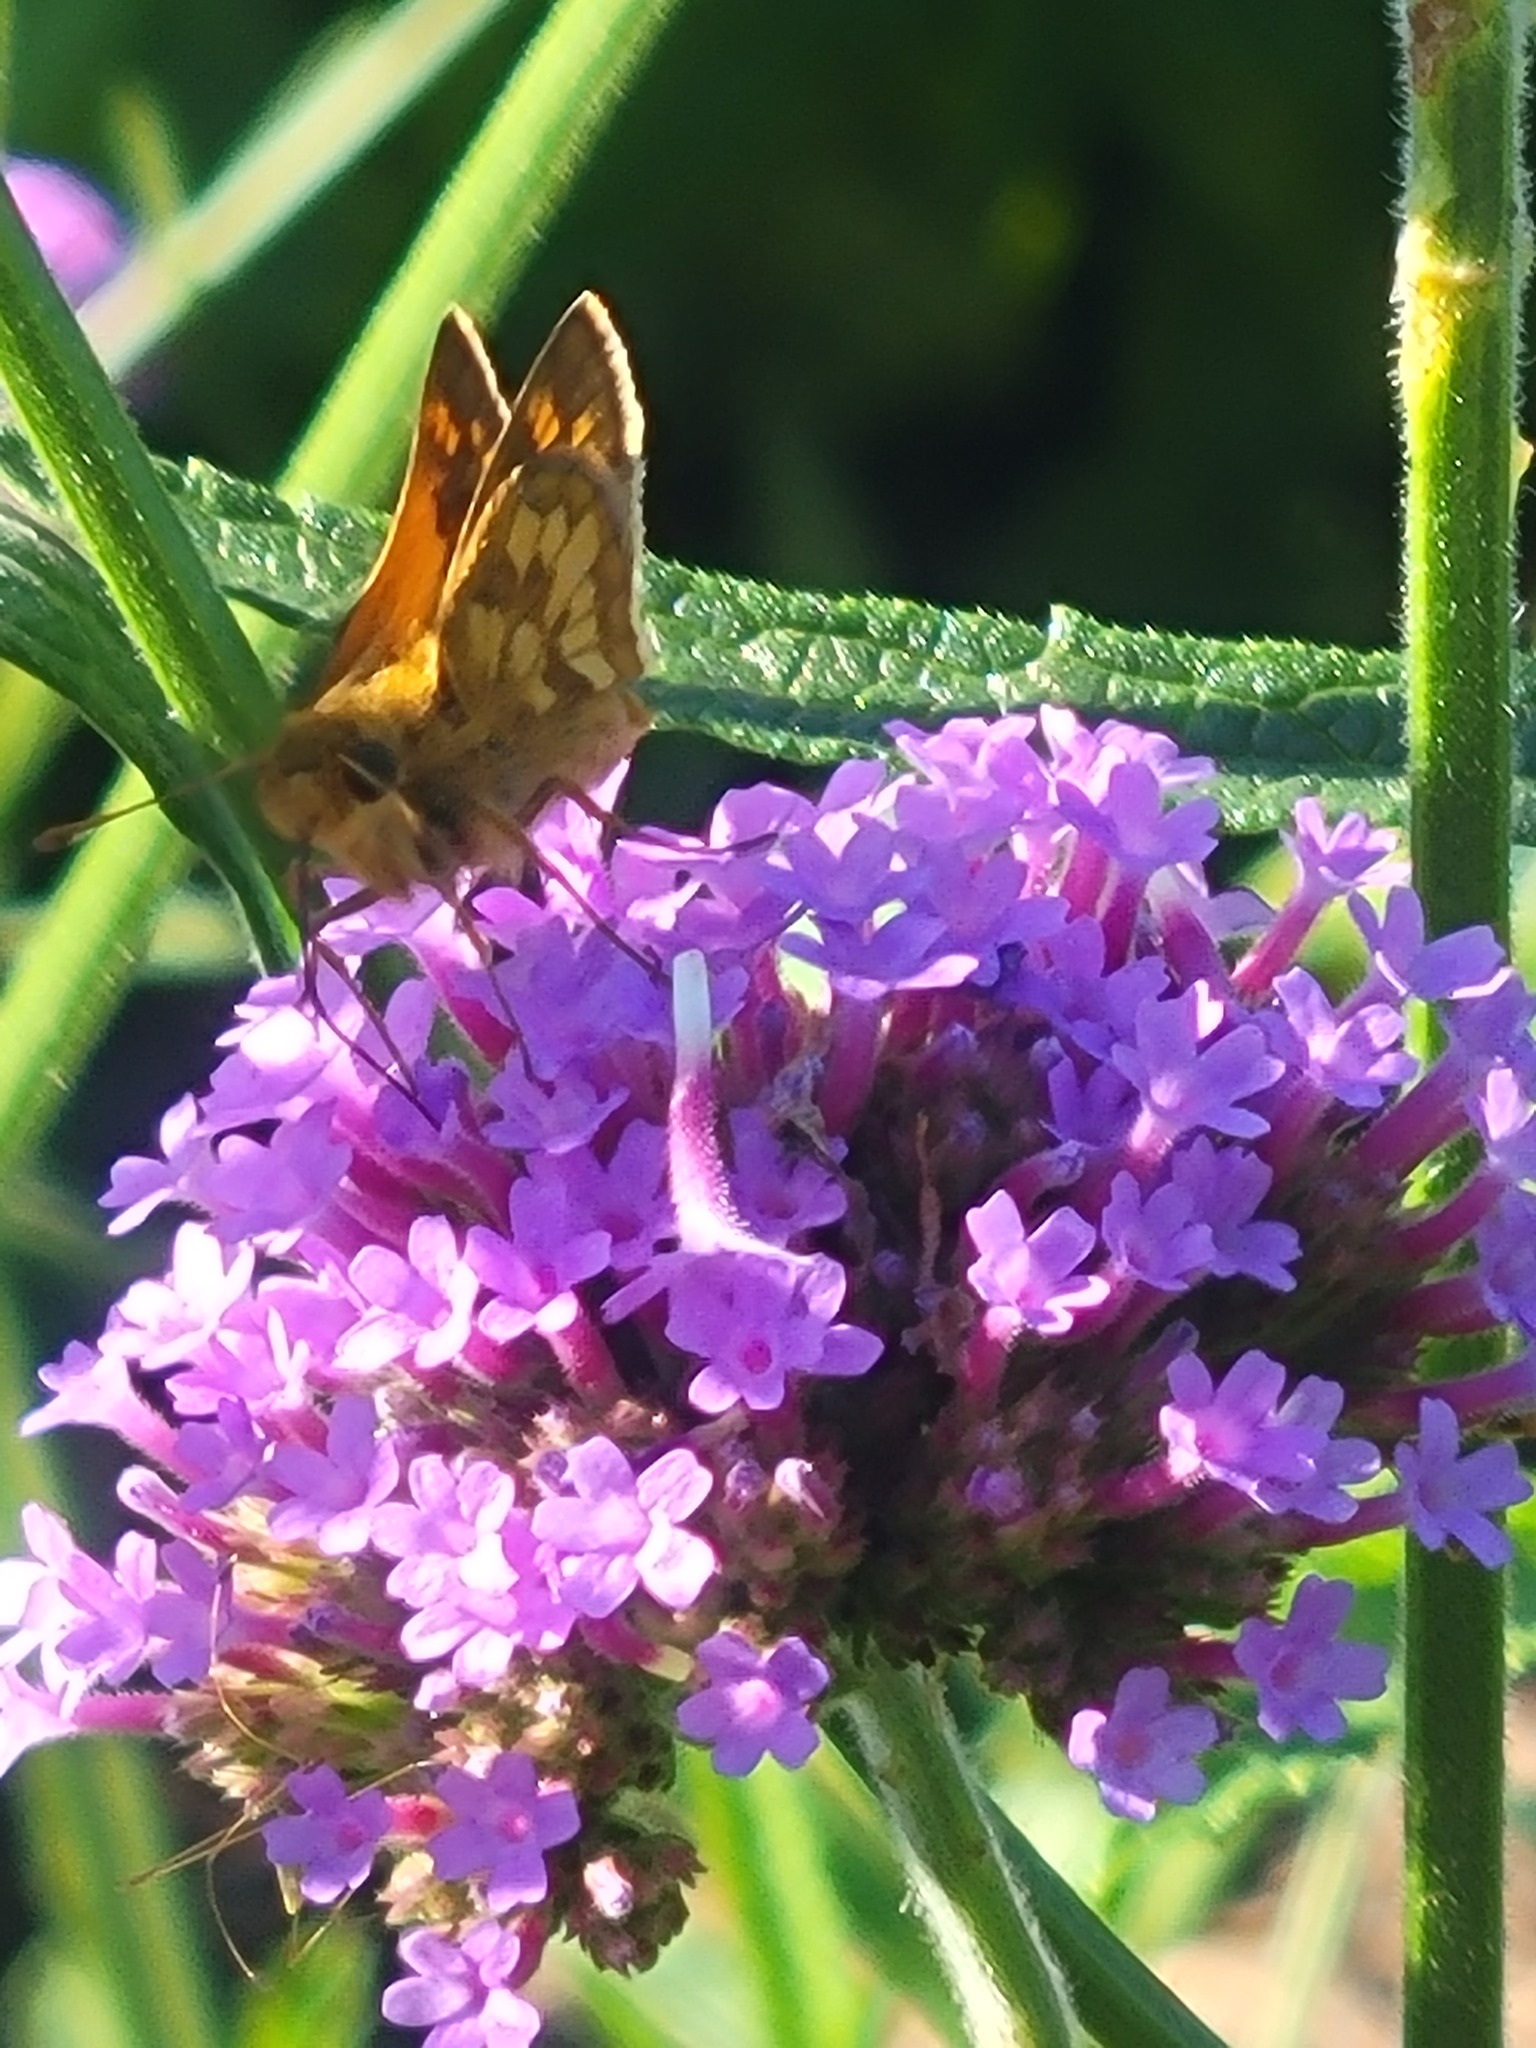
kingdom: Animalia
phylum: Arthropoda
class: Insecta
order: Lepidoptera
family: Hesperiidae
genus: Polites
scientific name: Polites coras
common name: Peck's skipper
